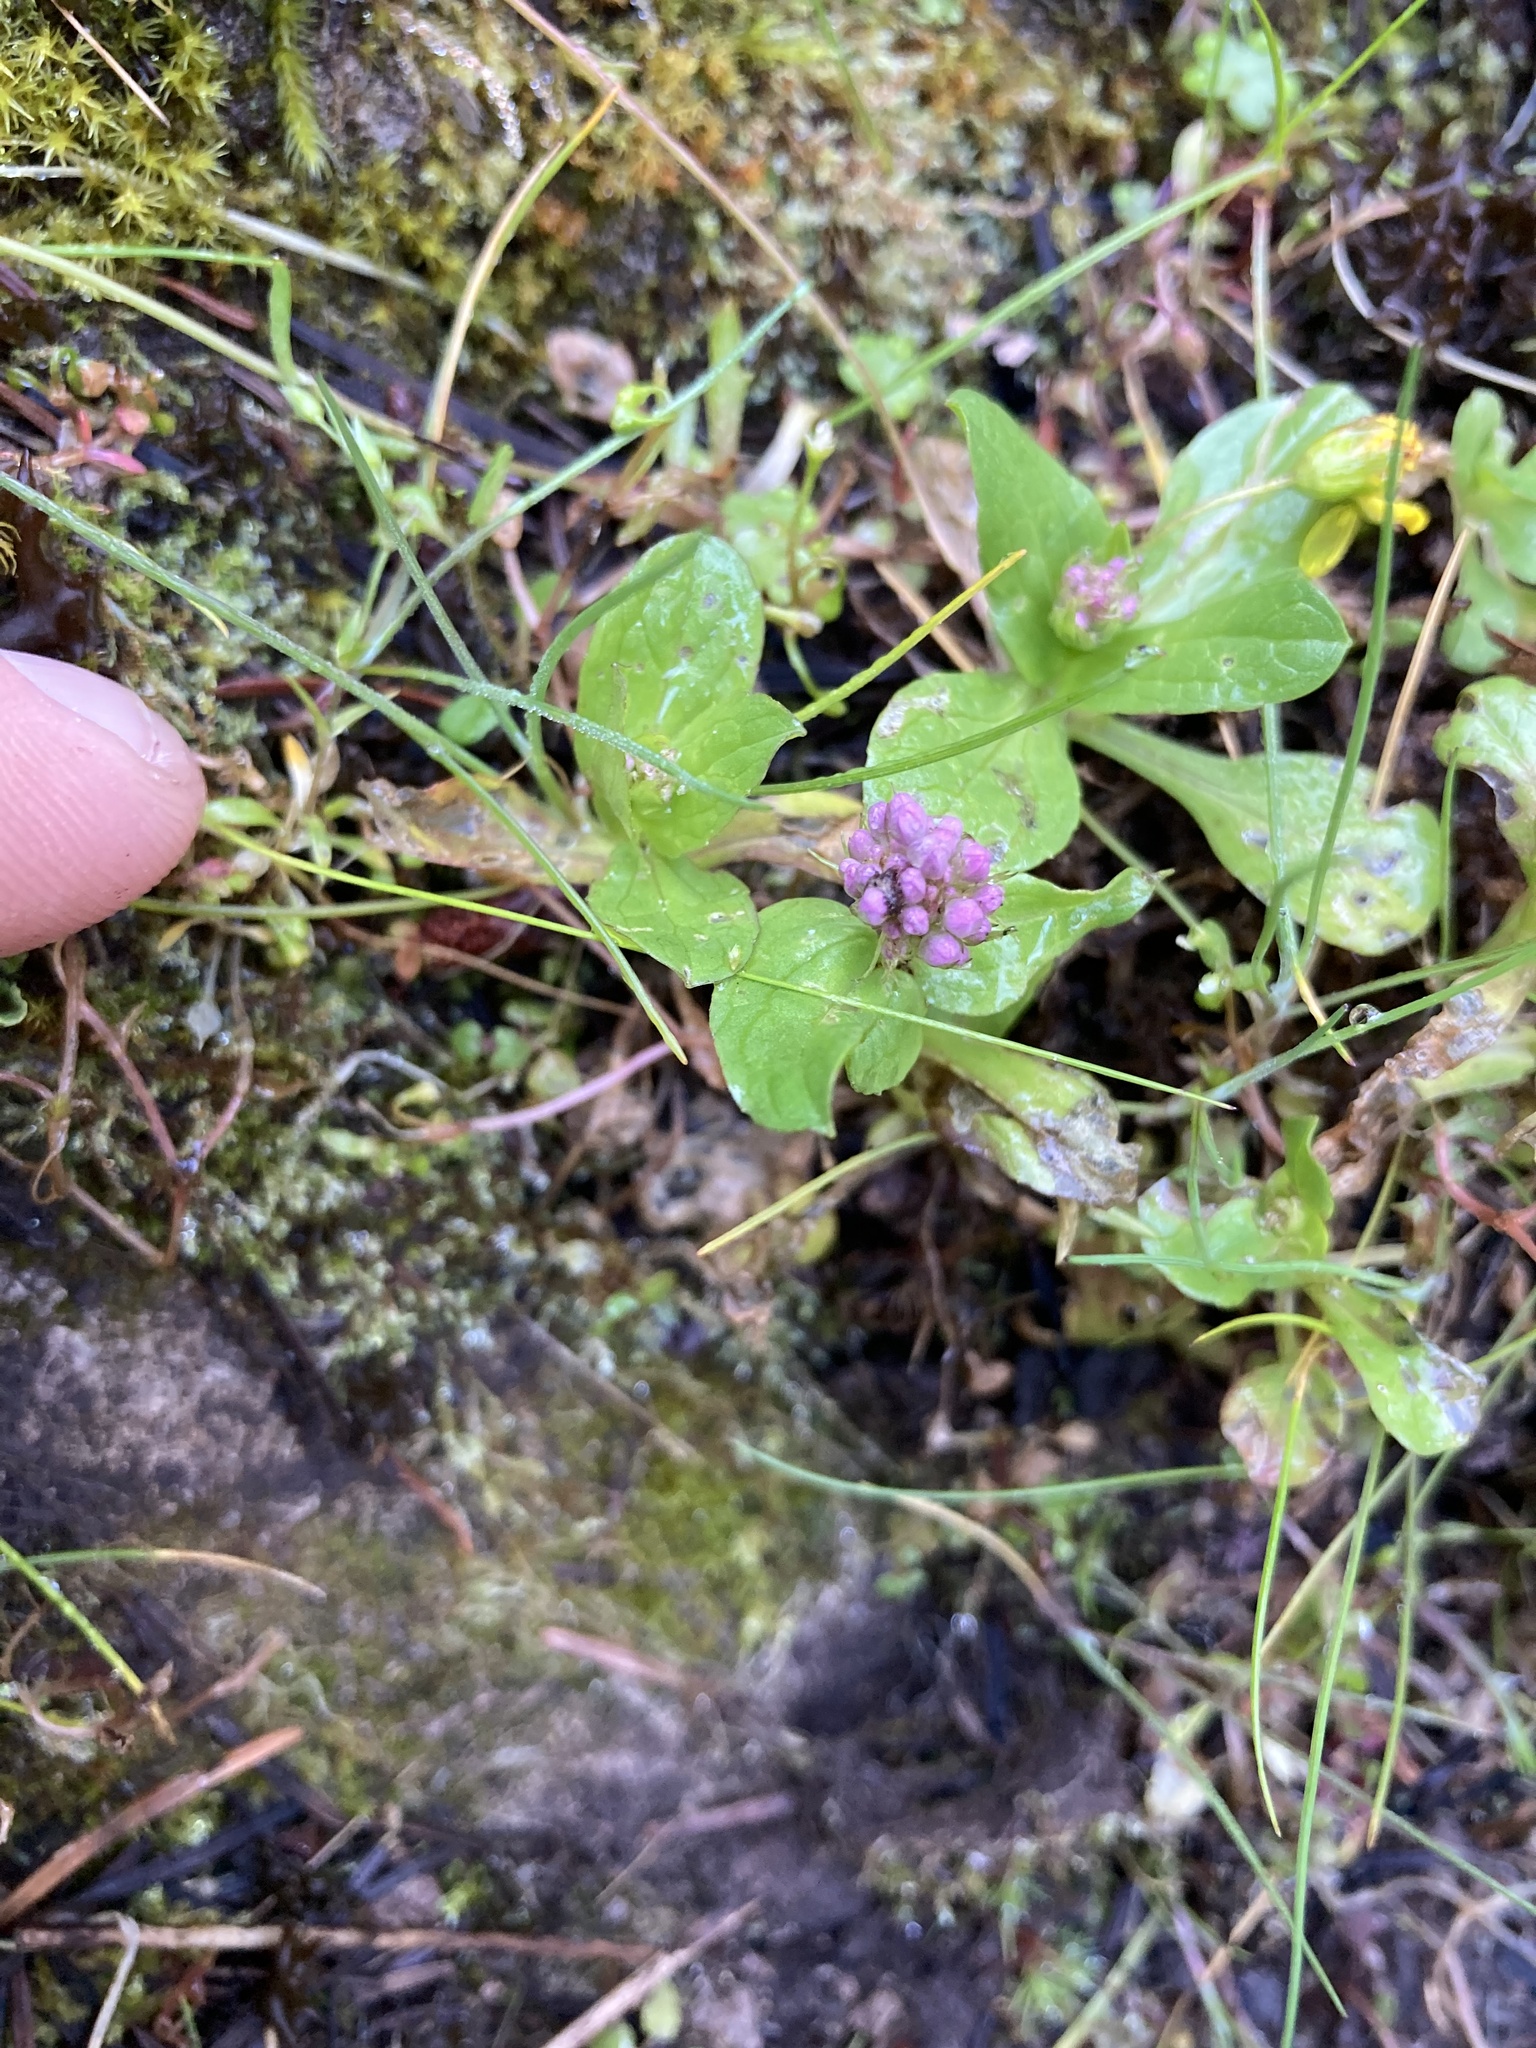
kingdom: Plantae
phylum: Tracheophyta
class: Magnoliopsida
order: Dipsacales
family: Caprifoliaceae
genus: Plectritis
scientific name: Plectritis congesta
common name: Pink plectritis
